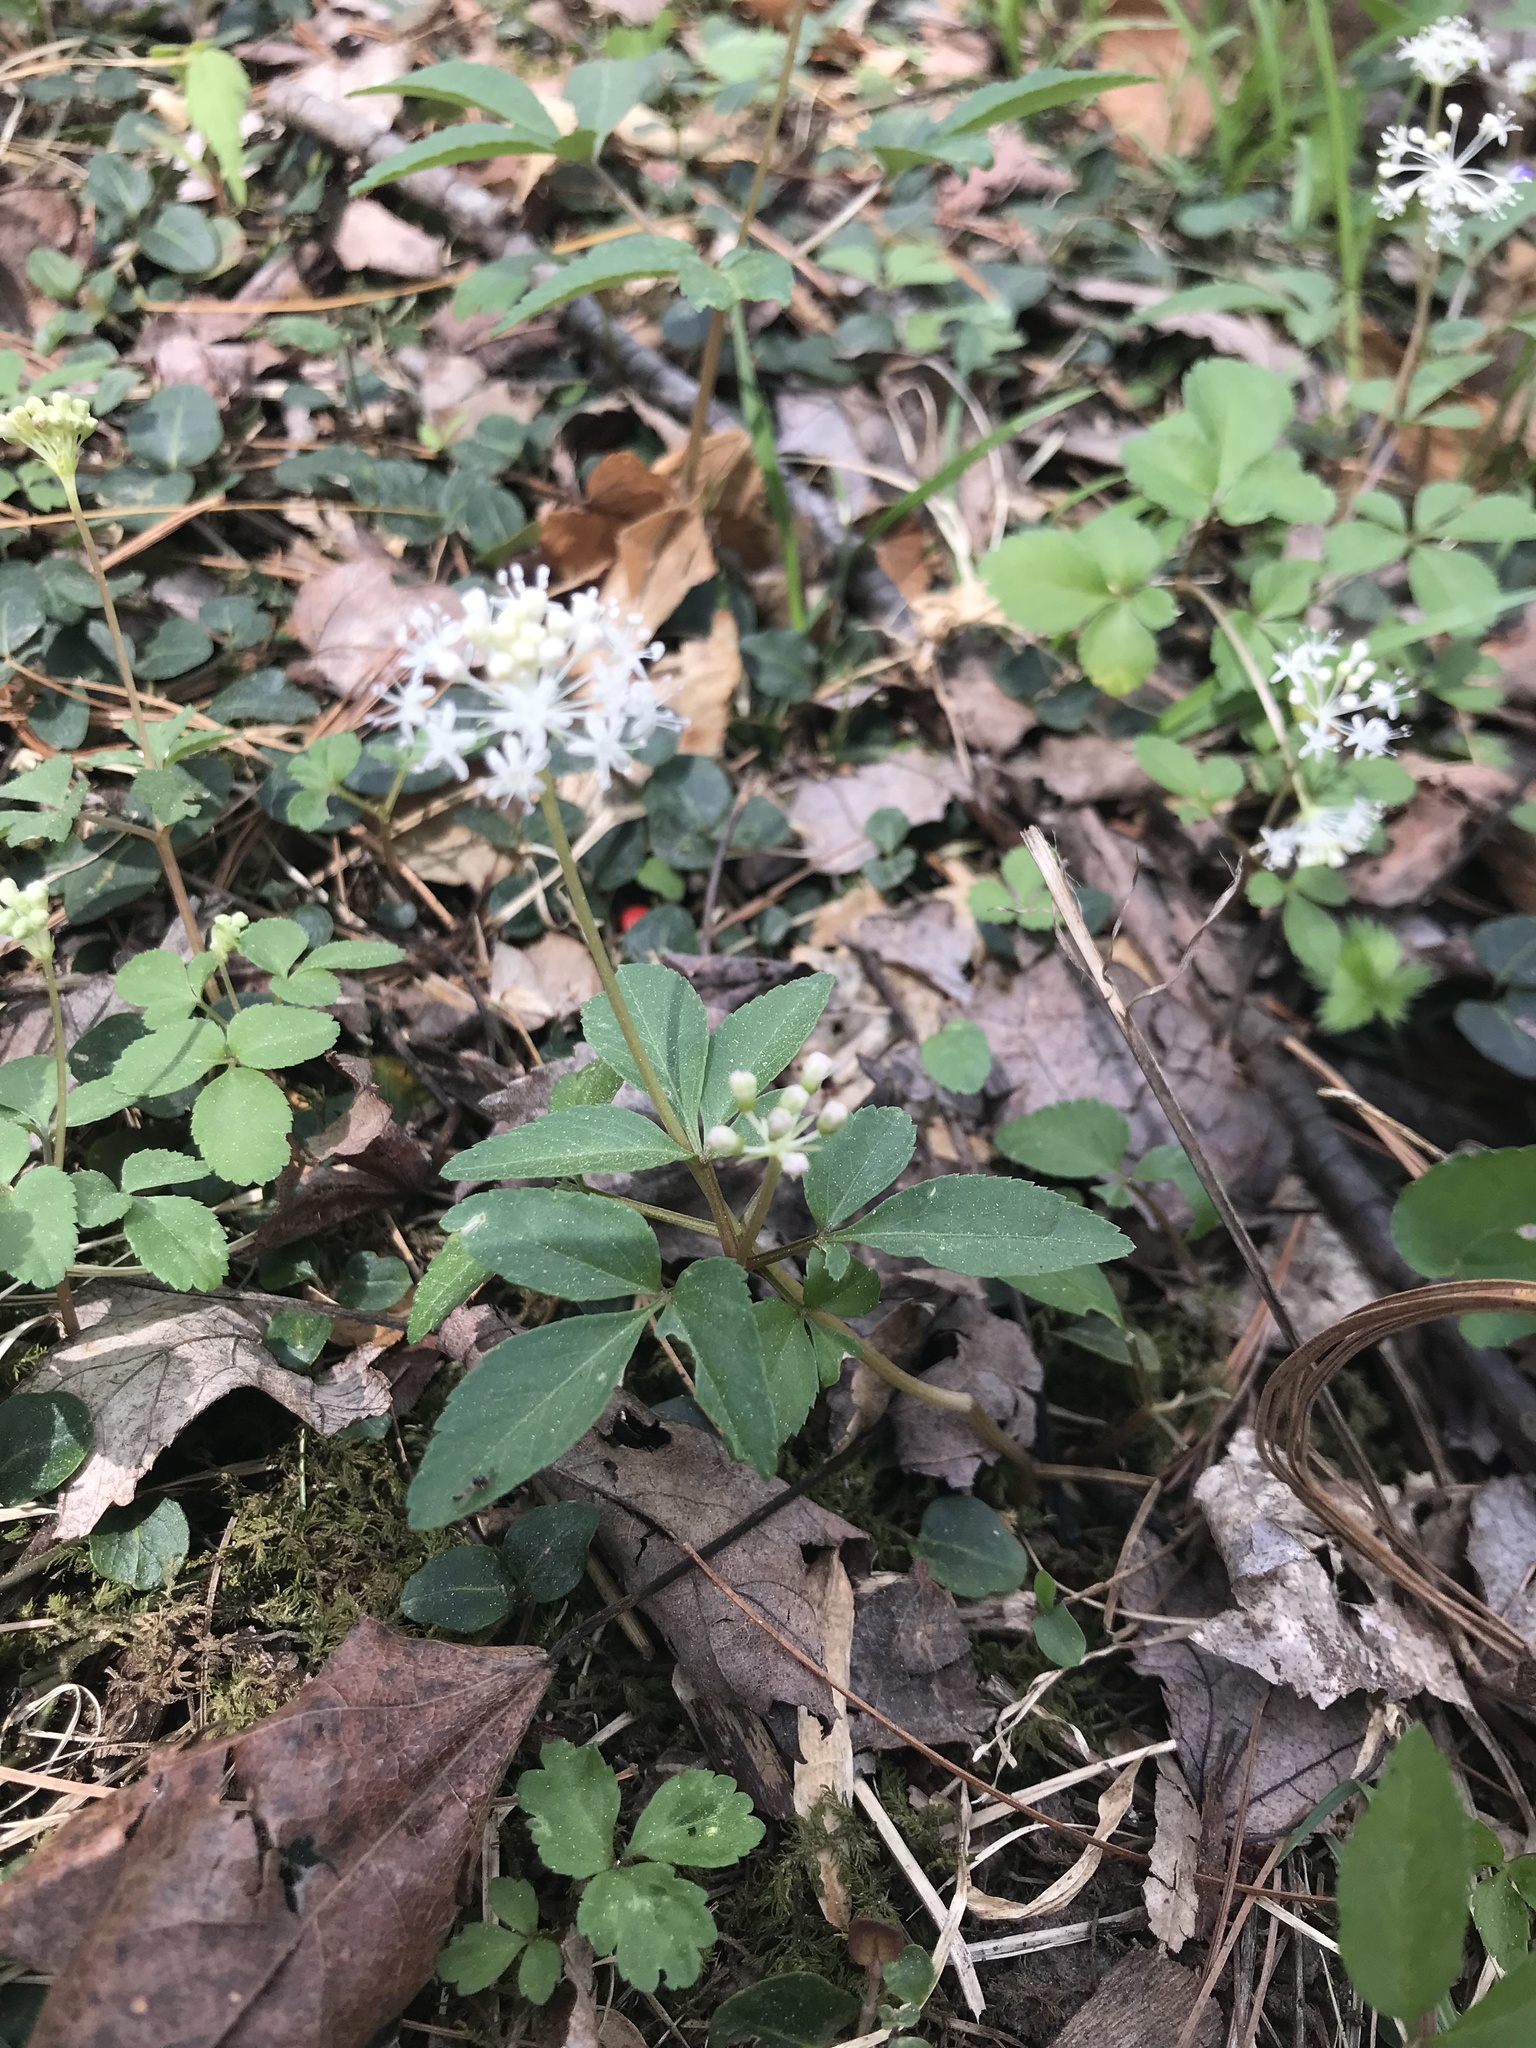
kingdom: Plantae
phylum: Tracheophyta
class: Magnoliopsida
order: Apiales
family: Araliaceae
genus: Panax
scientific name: Panax trifolius
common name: Dwarf ginseng
